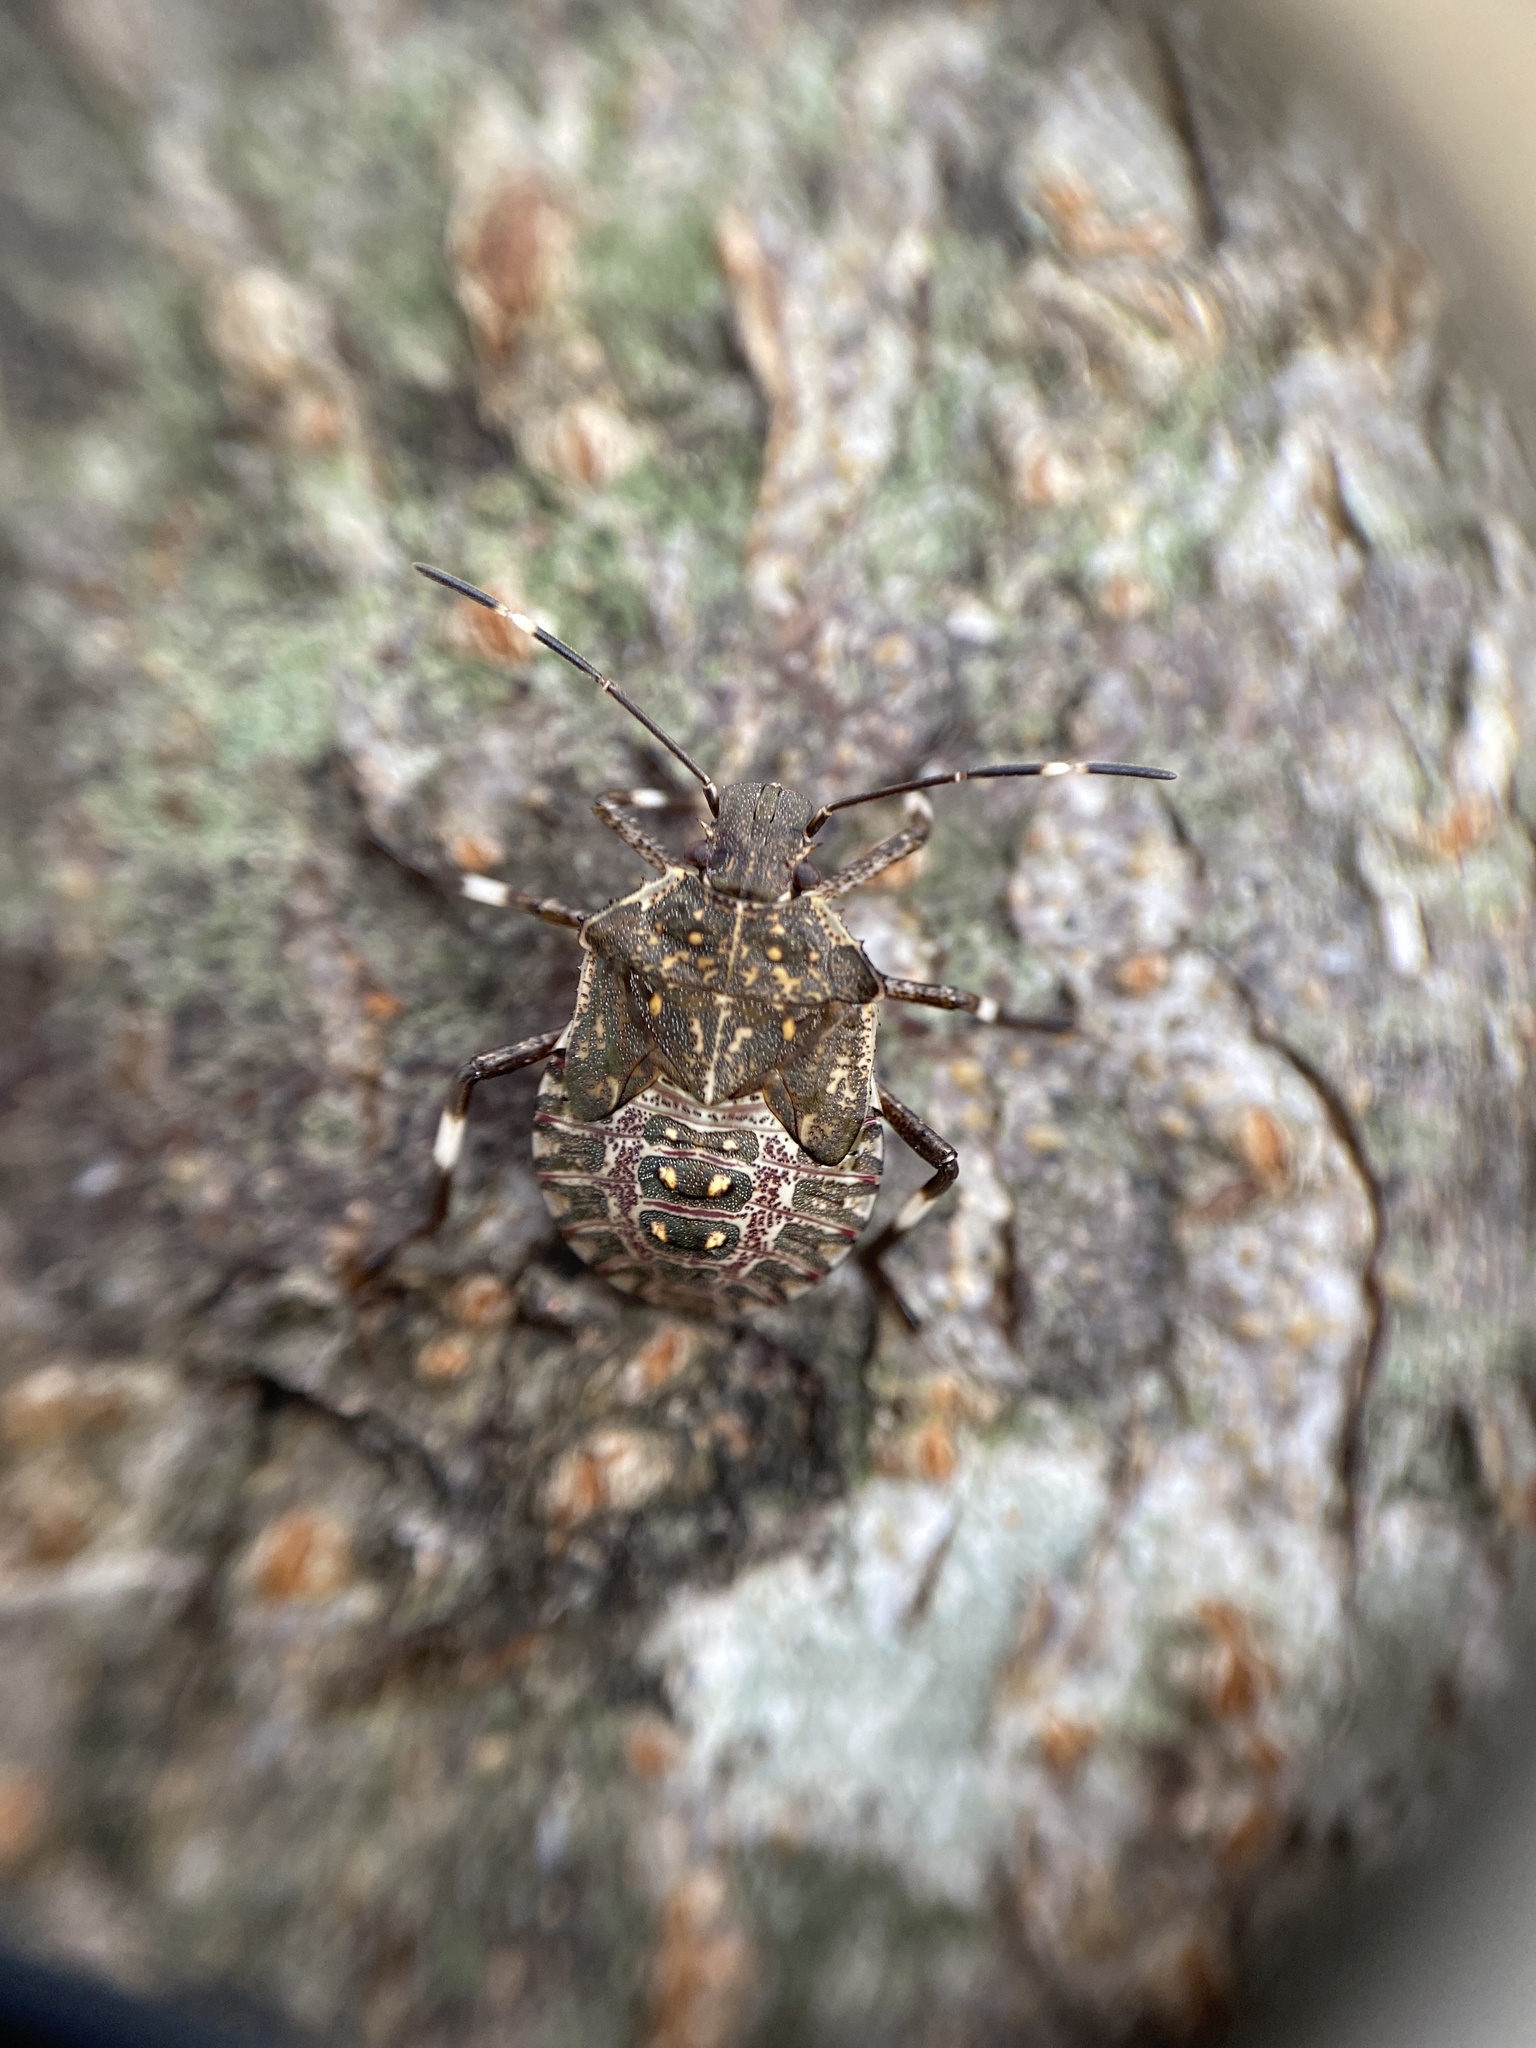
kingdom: Animalia
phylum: Arthropoda
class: Insecta
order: Hemiptera
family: Pentatomidae
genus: Halyomorpha
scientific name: Halyomorpha halys
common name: Brown marmorated stink bug
